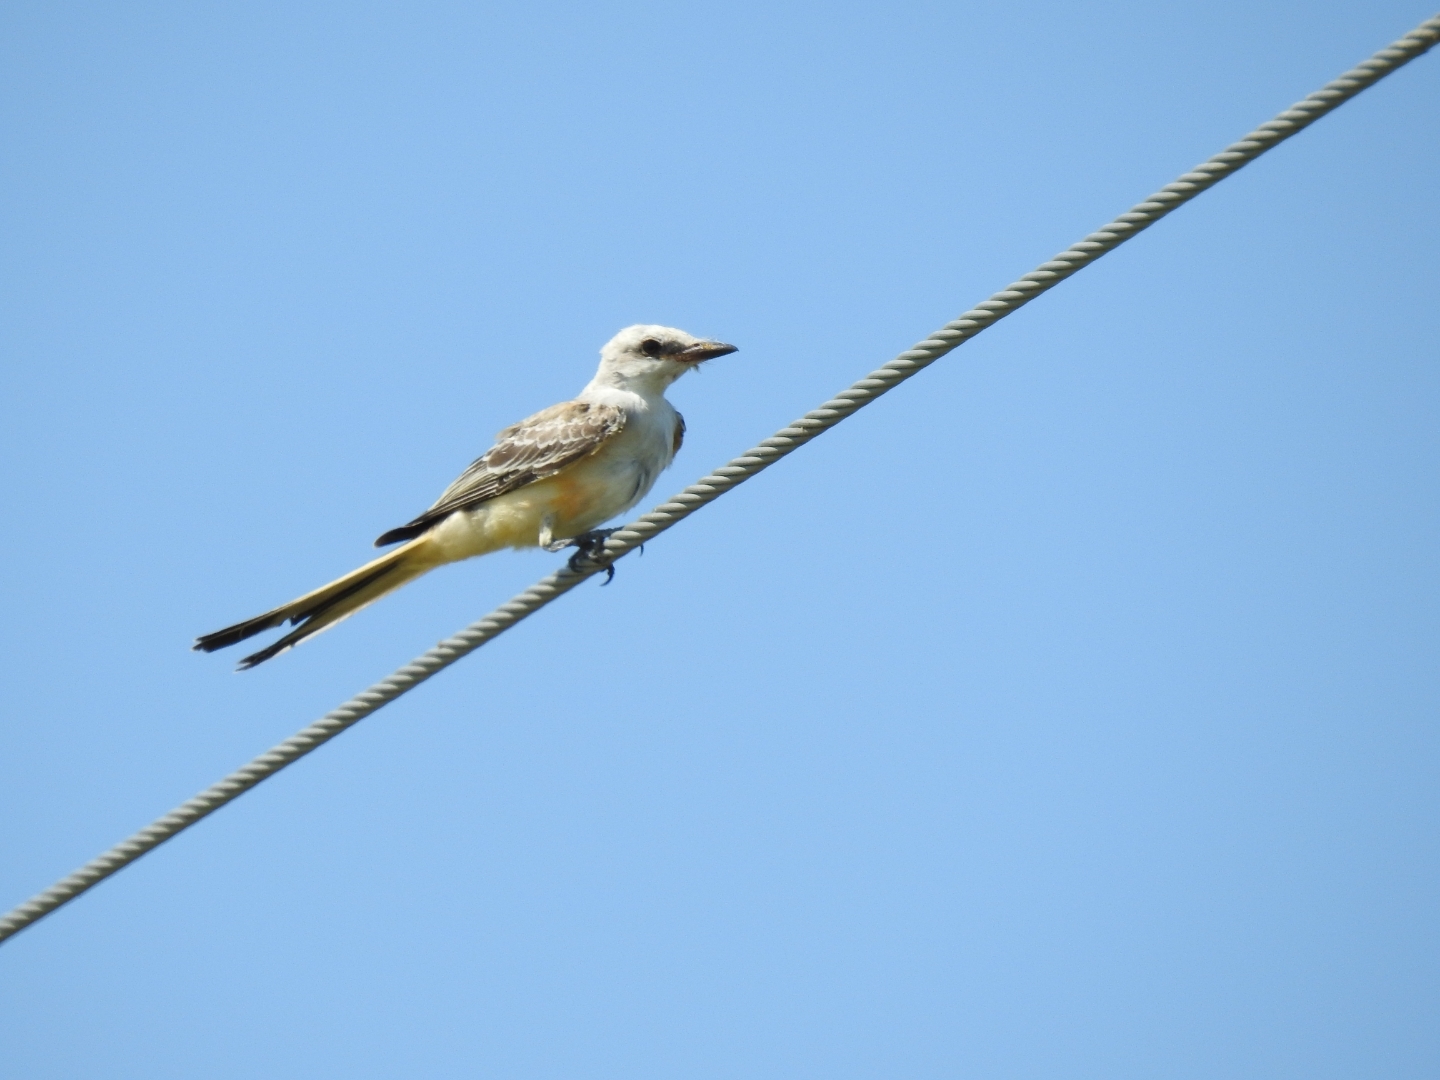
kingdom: Animalia
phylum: Chordata
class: Aves
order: Passeriformes
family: Tyrannidae
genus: Tyrannus
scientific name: Tyrannus forficatus
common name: Scissor-tailed flycatcher
